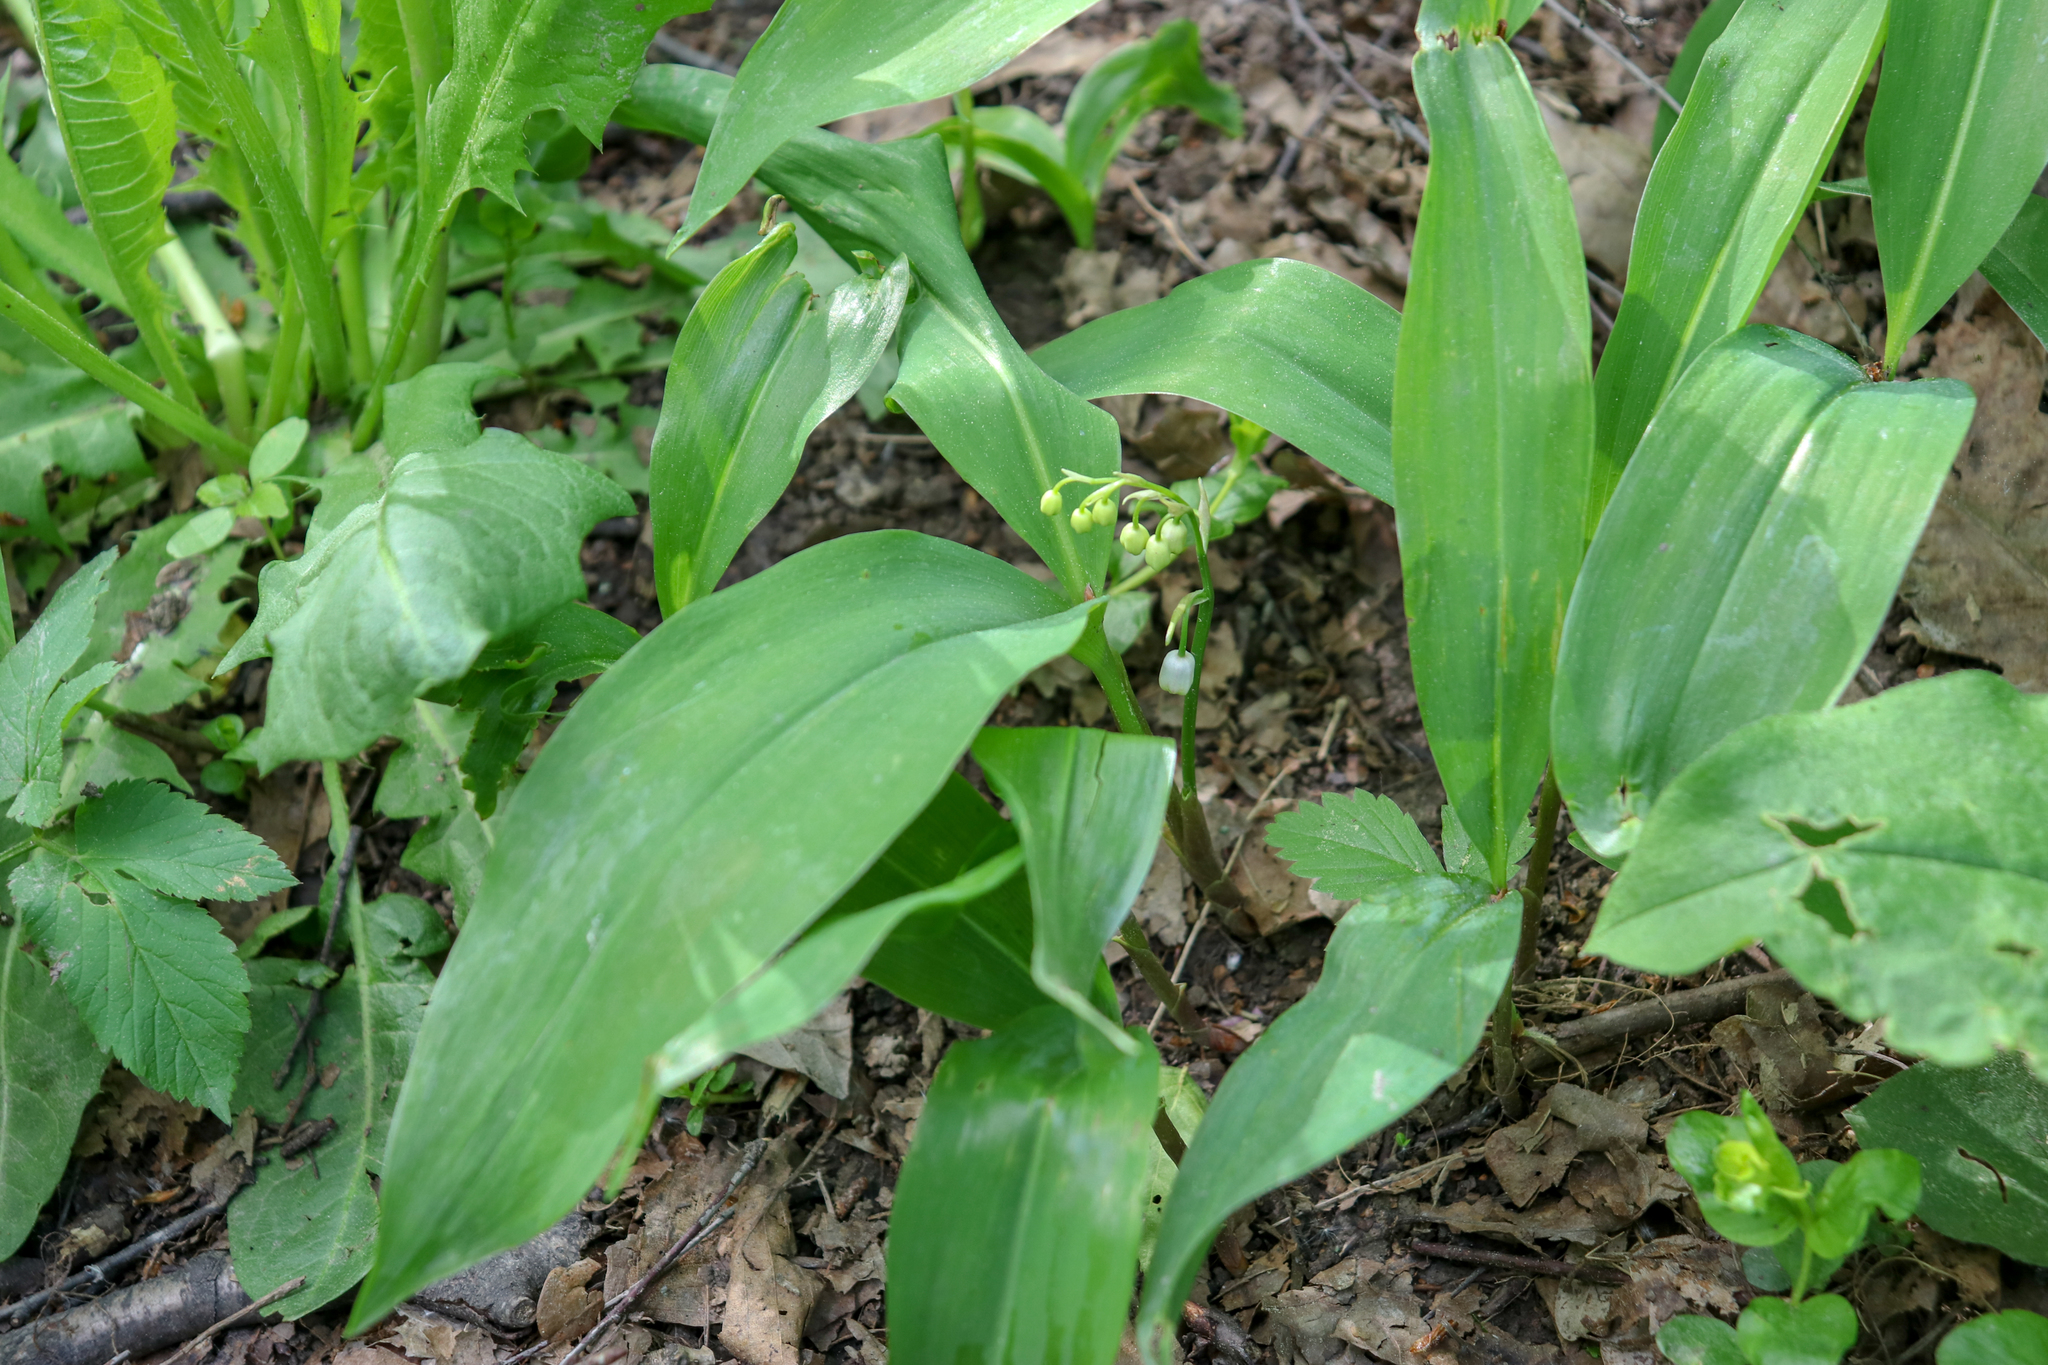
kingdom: Plantae
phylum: Tracheophyta
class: Liliopsida
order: Asparagales
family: Asparagaceae
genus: Convallaria
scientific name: Convallaria majalis
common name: Lily-of-the-valley
